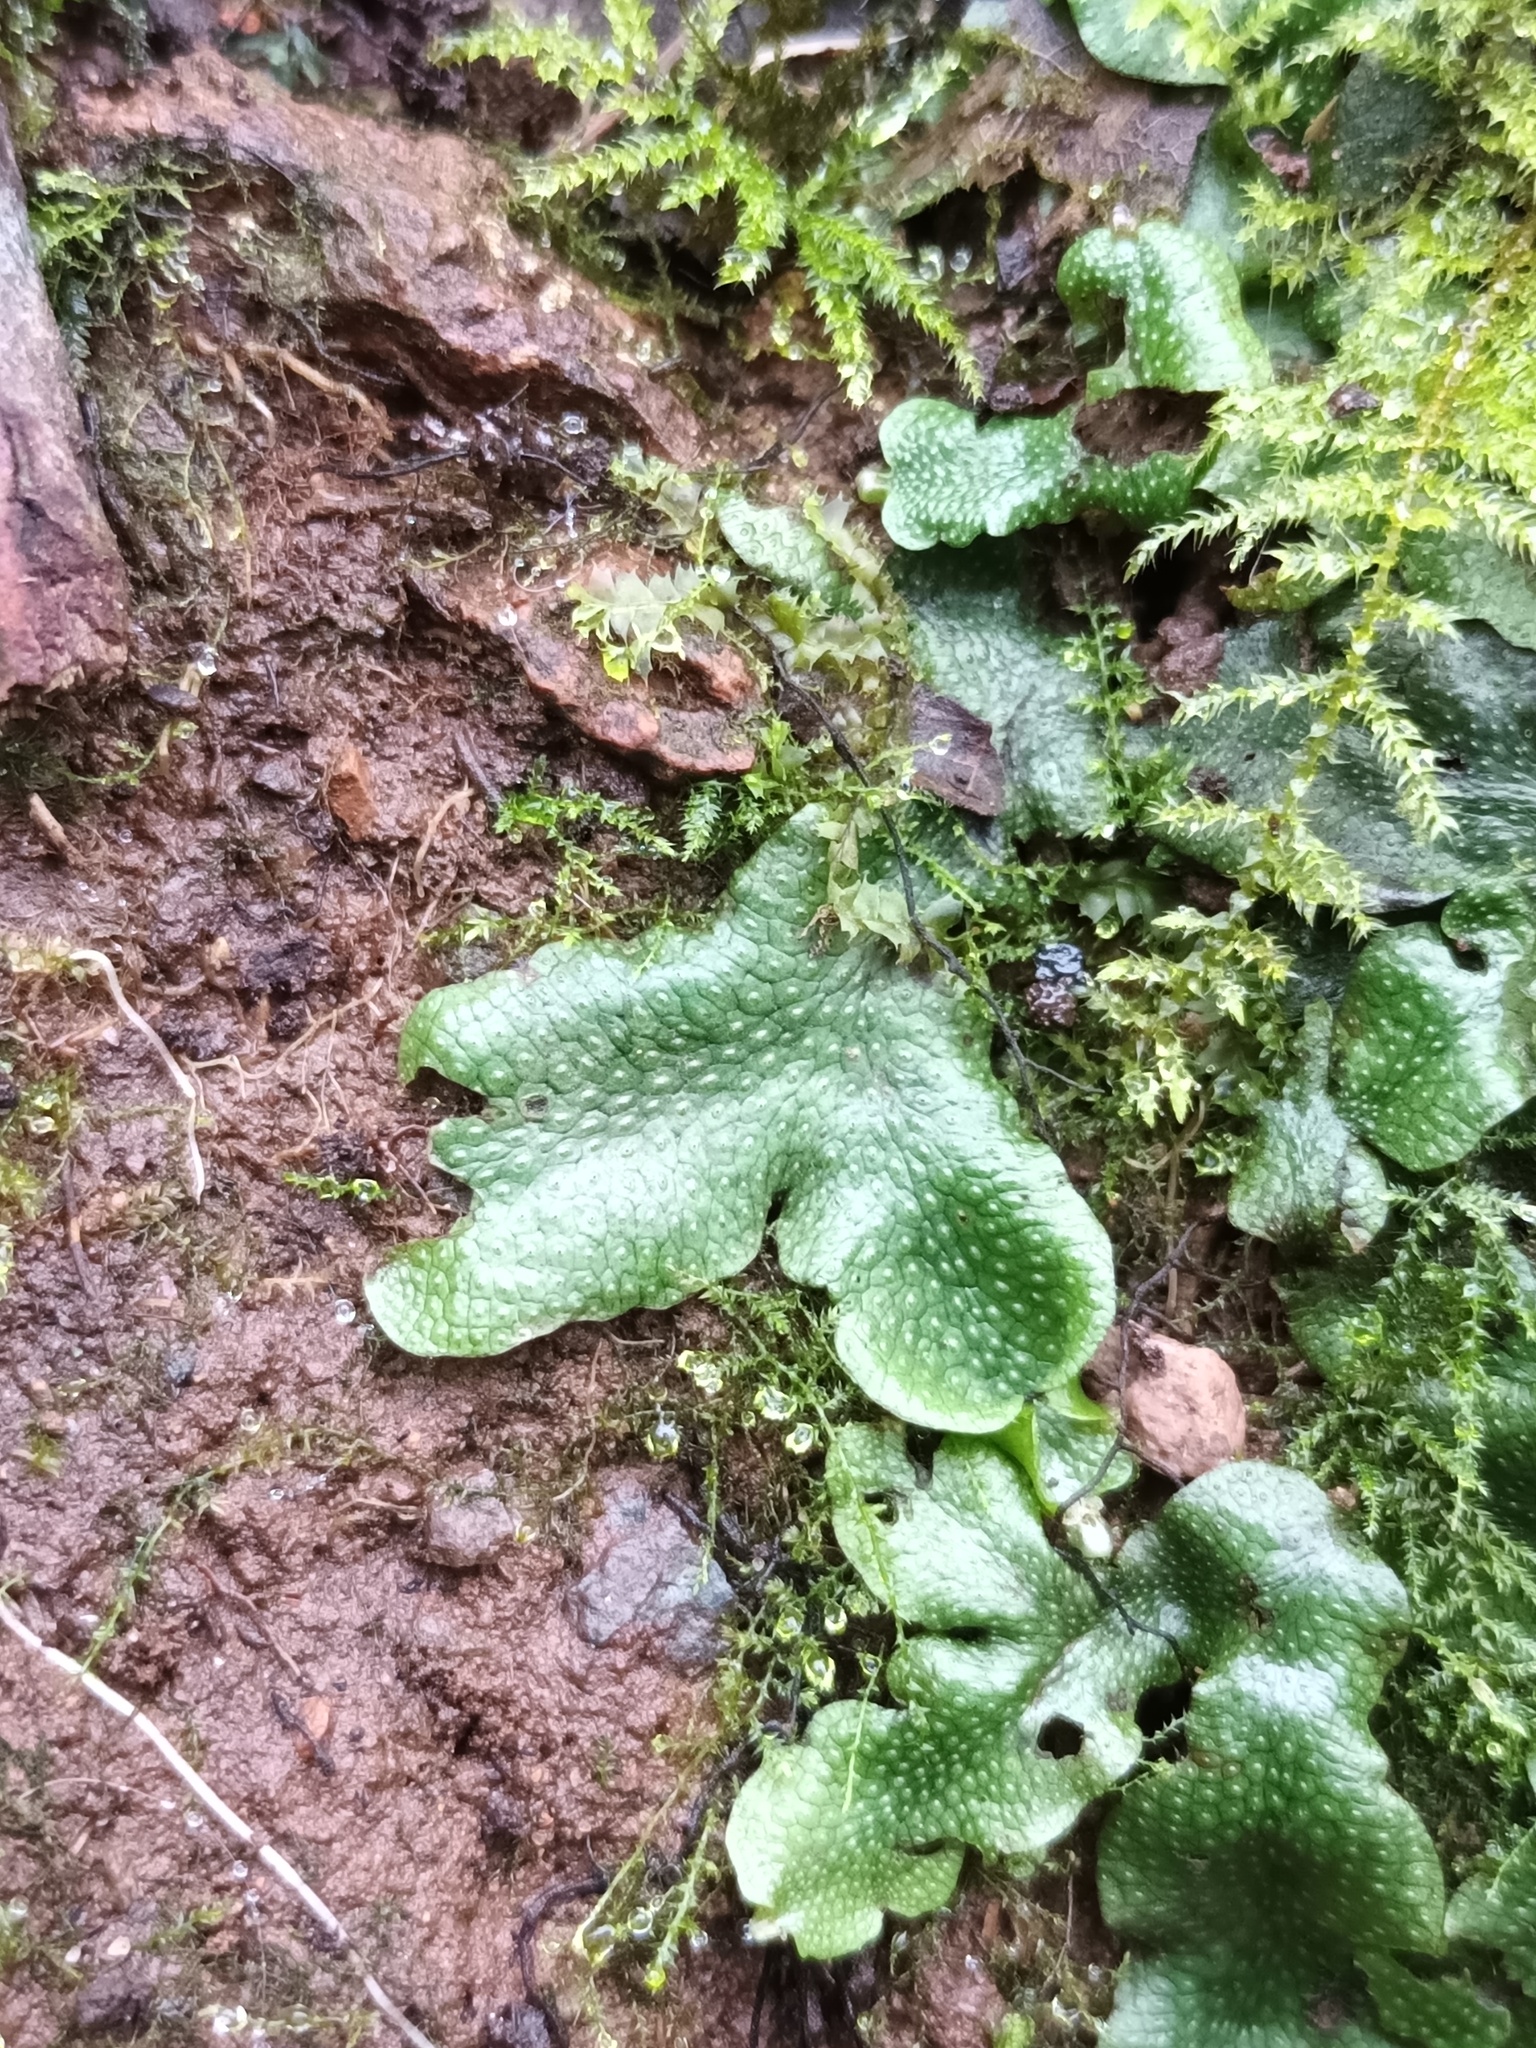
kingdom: Plantae
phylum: Marchantiophyta
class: Marchantiopsida
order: Marchantiales
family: Conocephalaceae
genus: Conocephalum
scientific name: Conocephalum conicum
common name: Great scented liverwort
